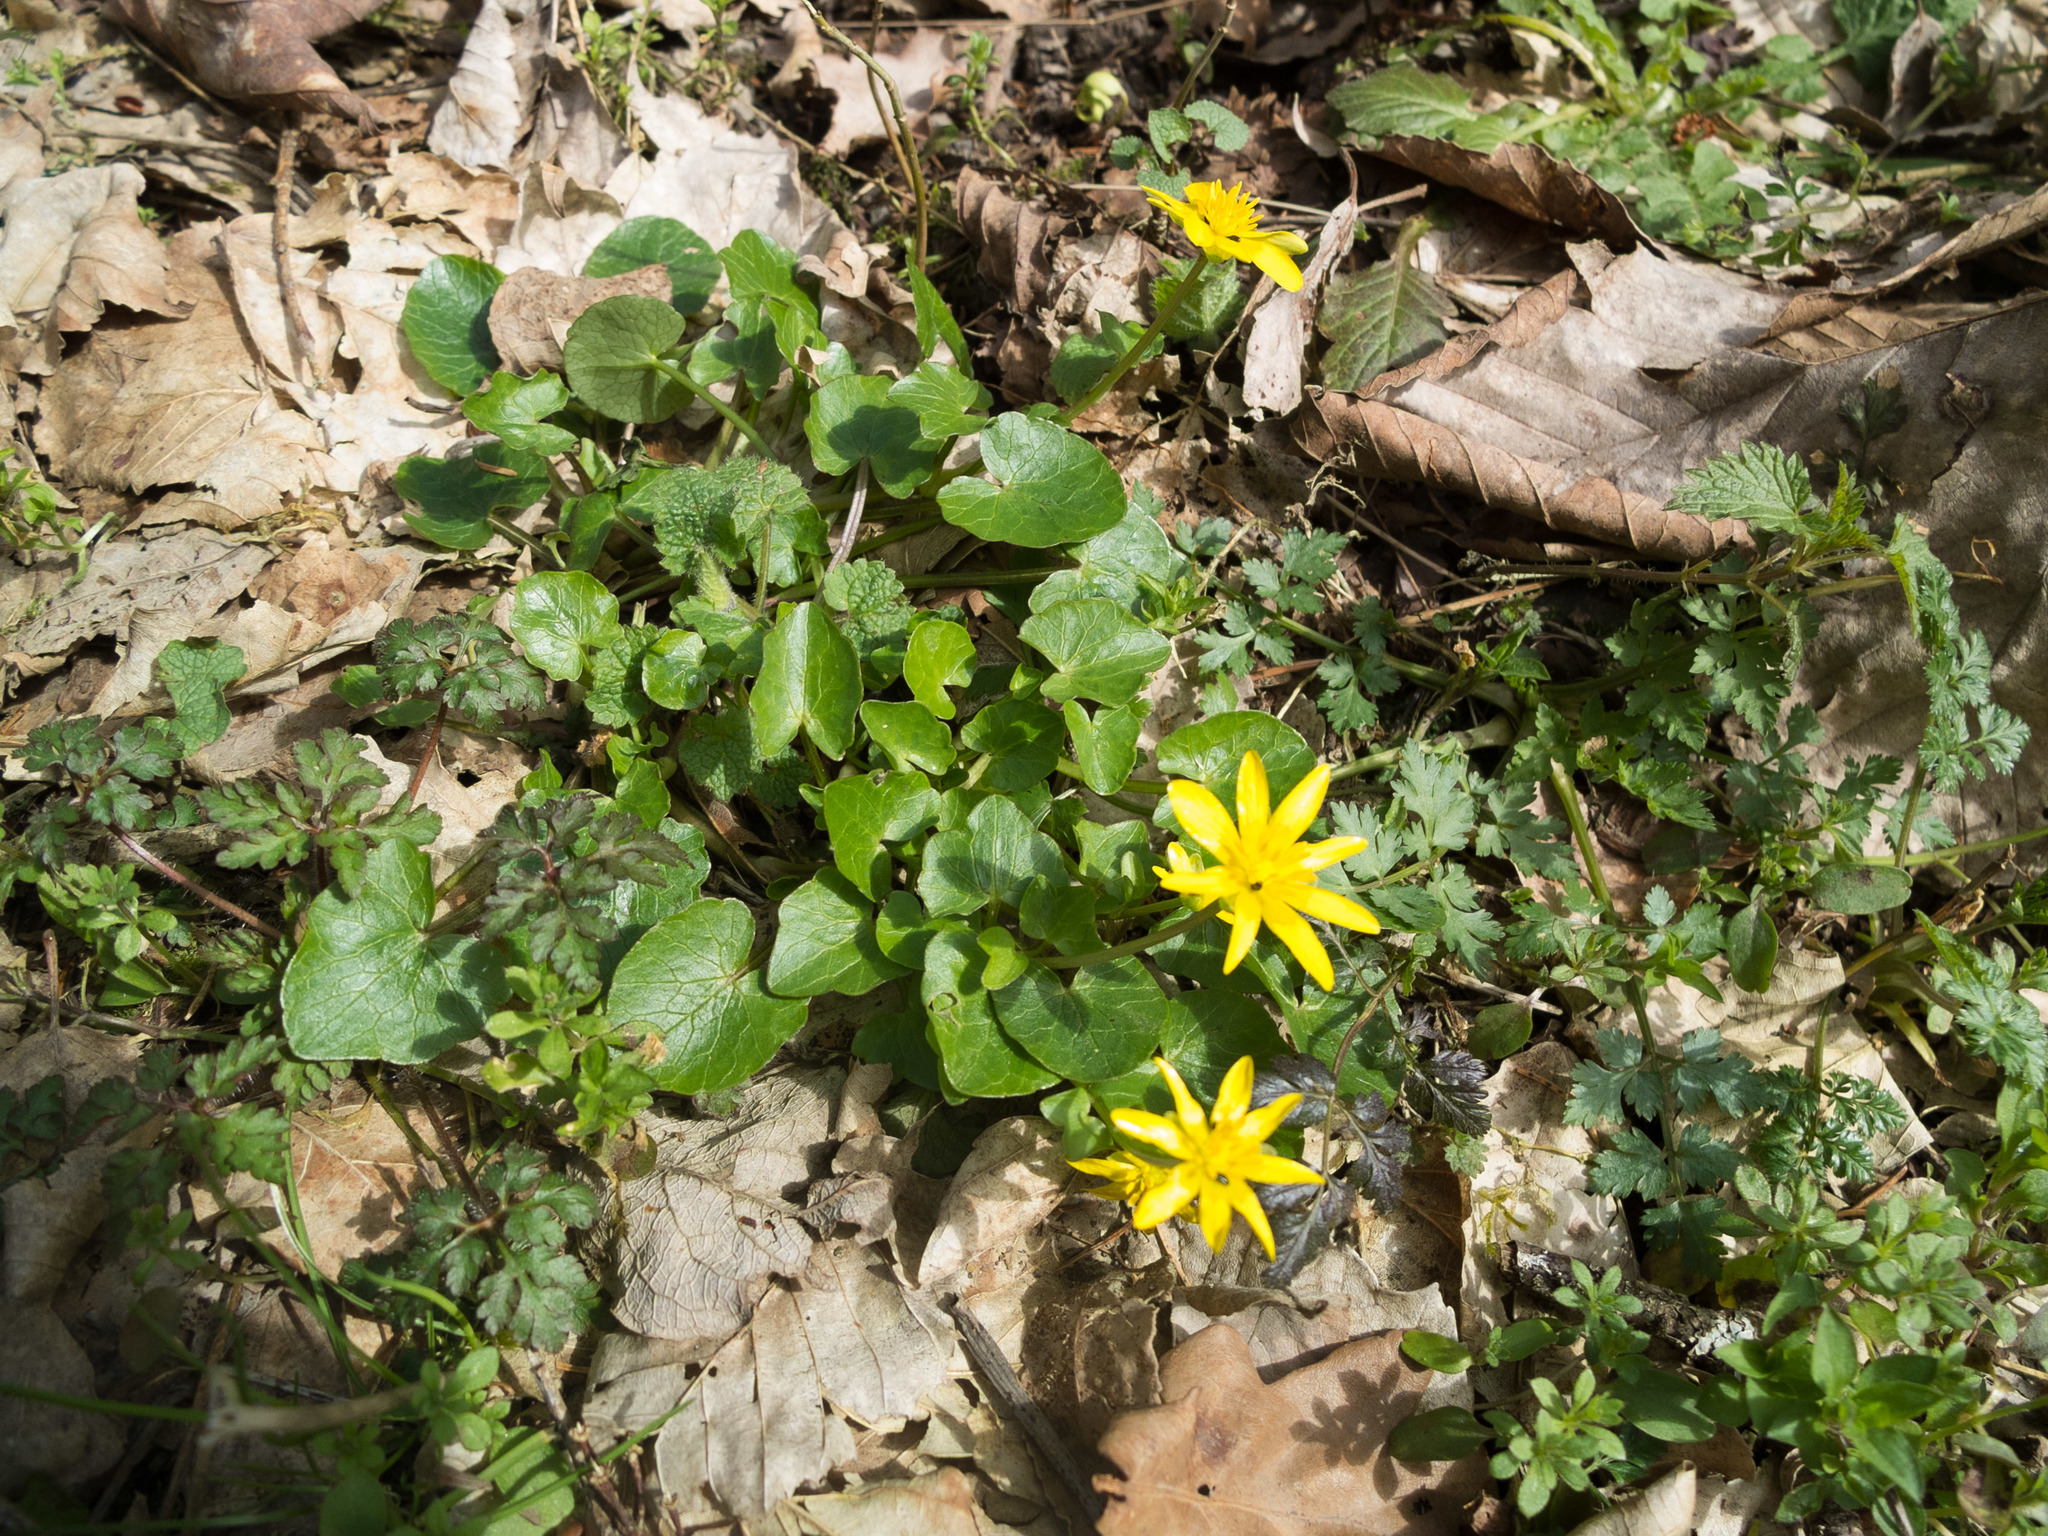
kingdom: Plantae
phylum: Tracheophyta
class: Magnoliopsida
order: Ranunculales
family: Ranunculaceae
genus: Ficaria
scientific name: Ficaria verna
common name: Lesser celandine
